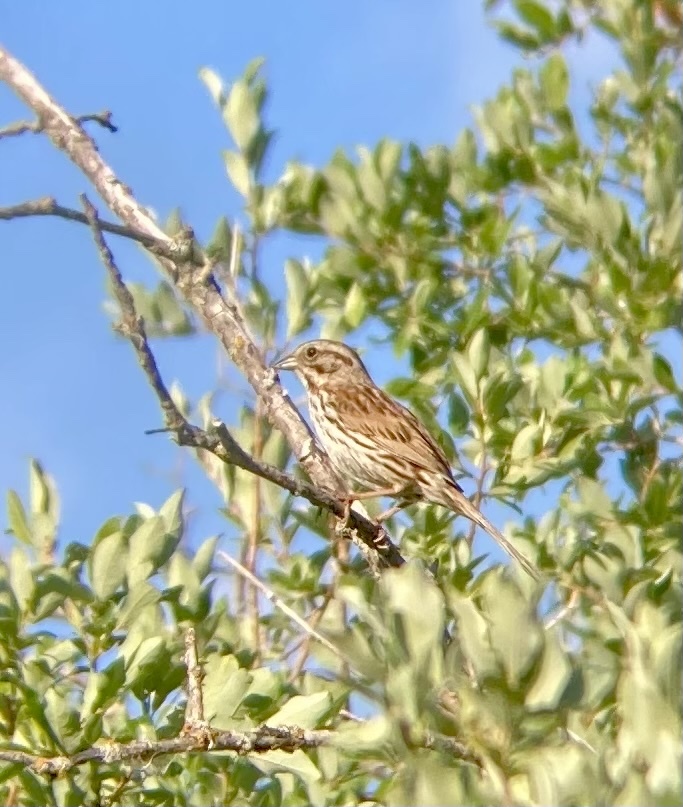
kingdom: Animalia
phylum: Chordata
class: Aves
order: Passeriformes
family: Passerellidae
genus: Melospiza
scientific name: Melospiza melodia
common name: Song sparrow
